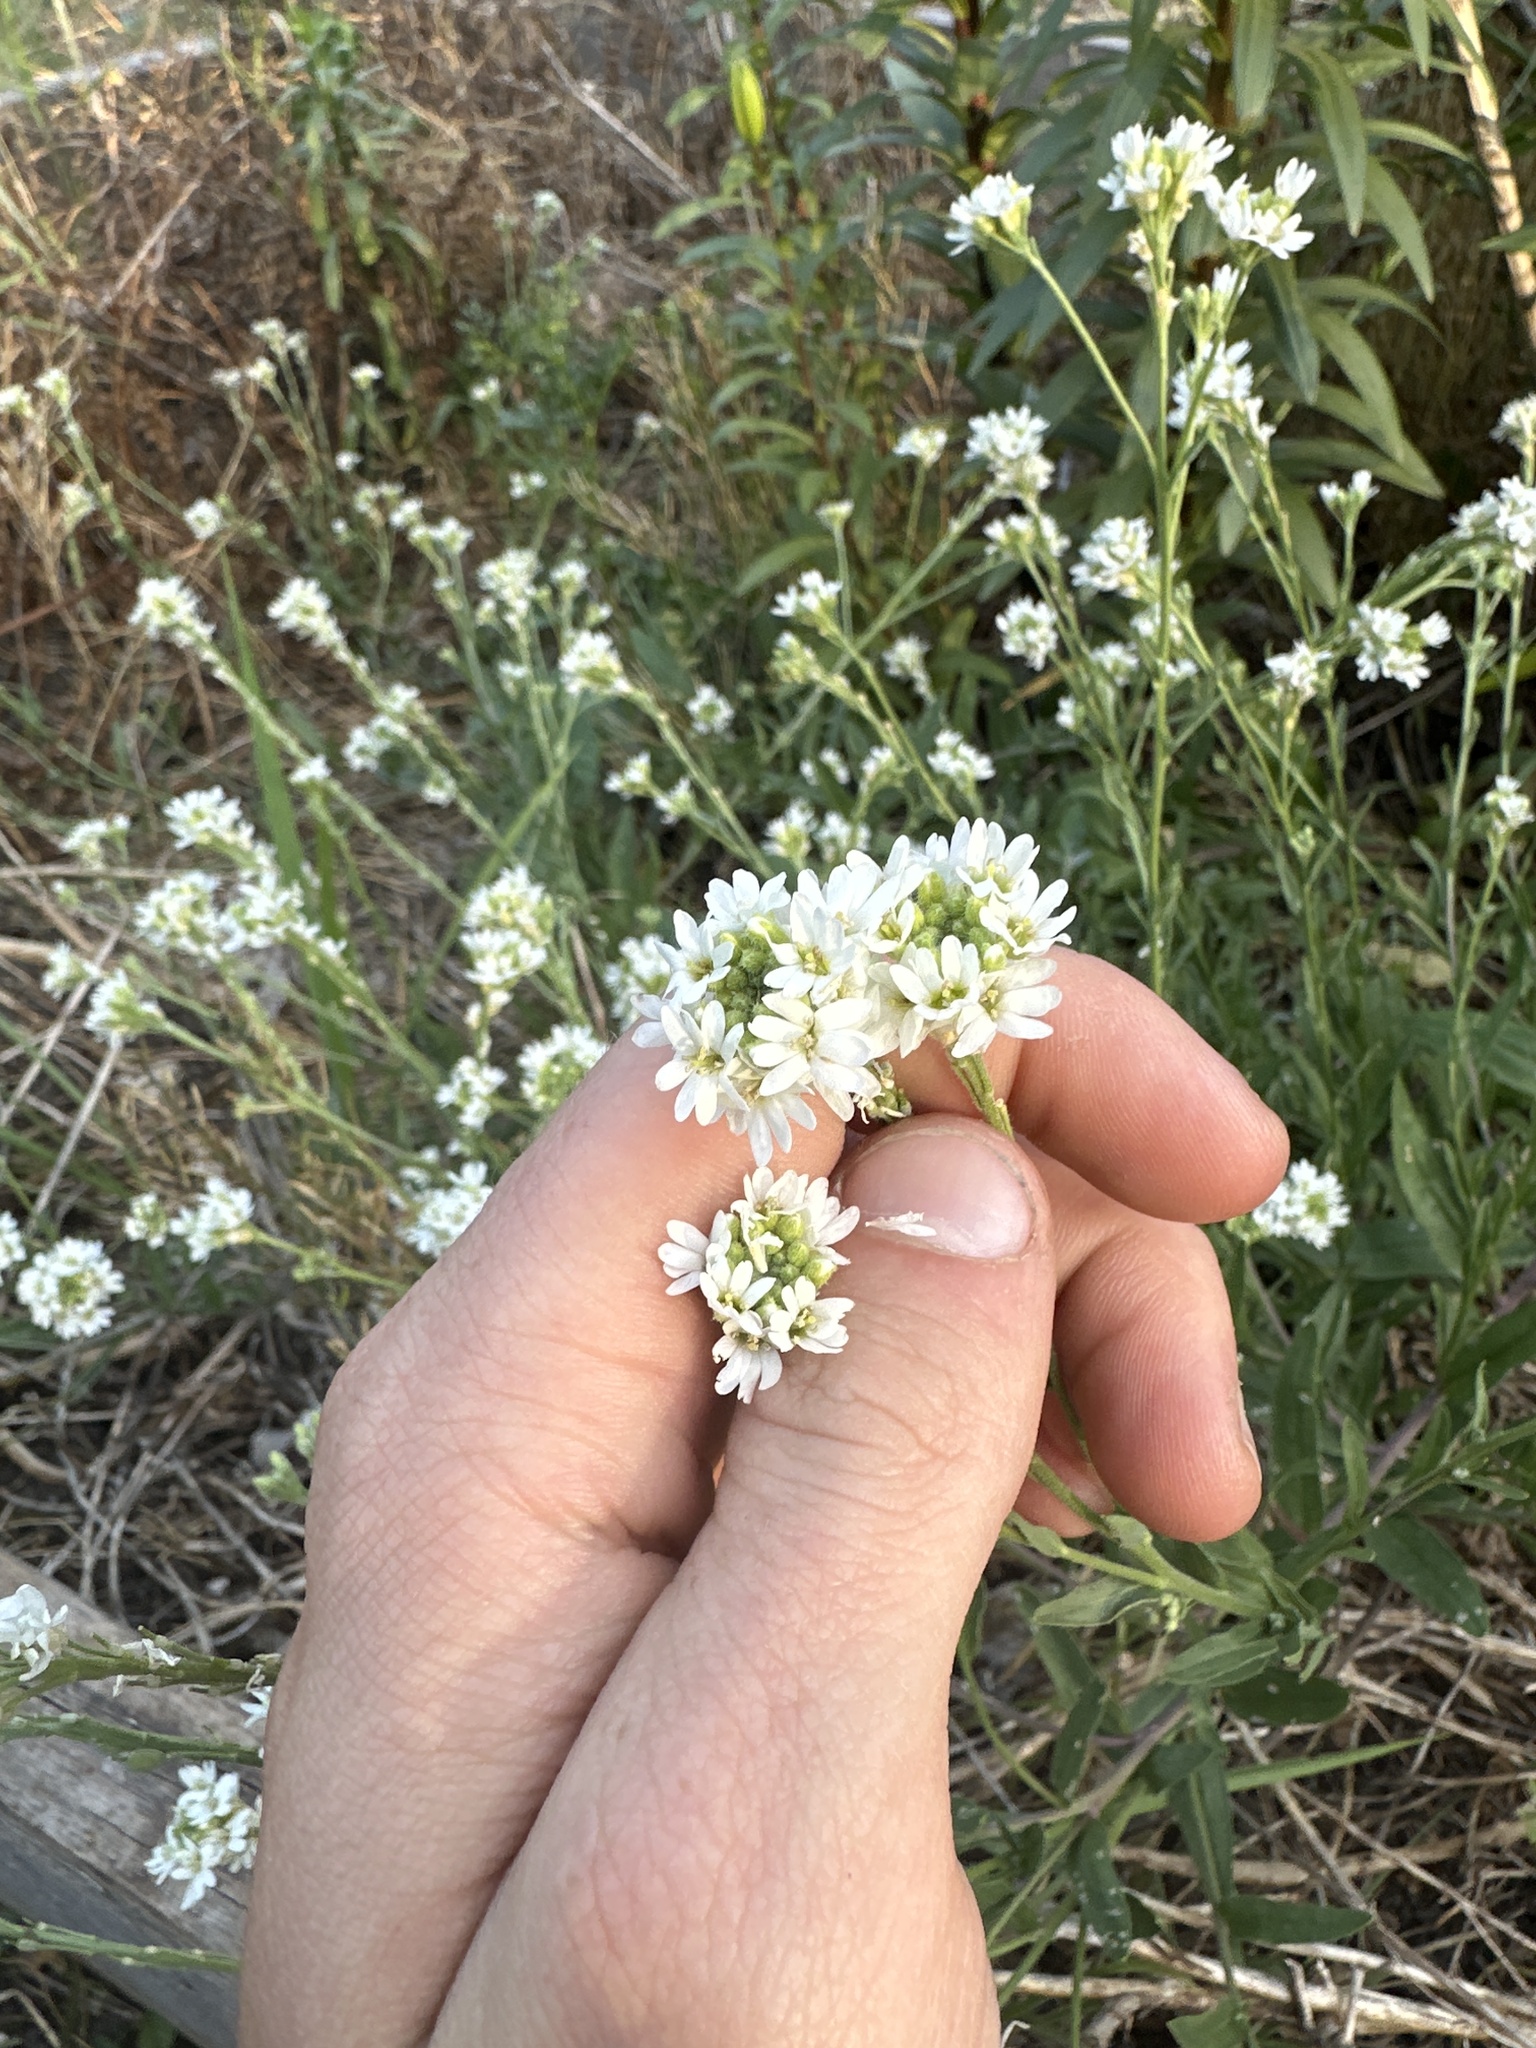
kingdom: Plantae
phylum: Tracheophyta
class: Magnoliopsida
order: Brassicales
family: Brassicaceae
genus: Berteroa
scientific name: Berteroa incana
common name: Hoary alison
